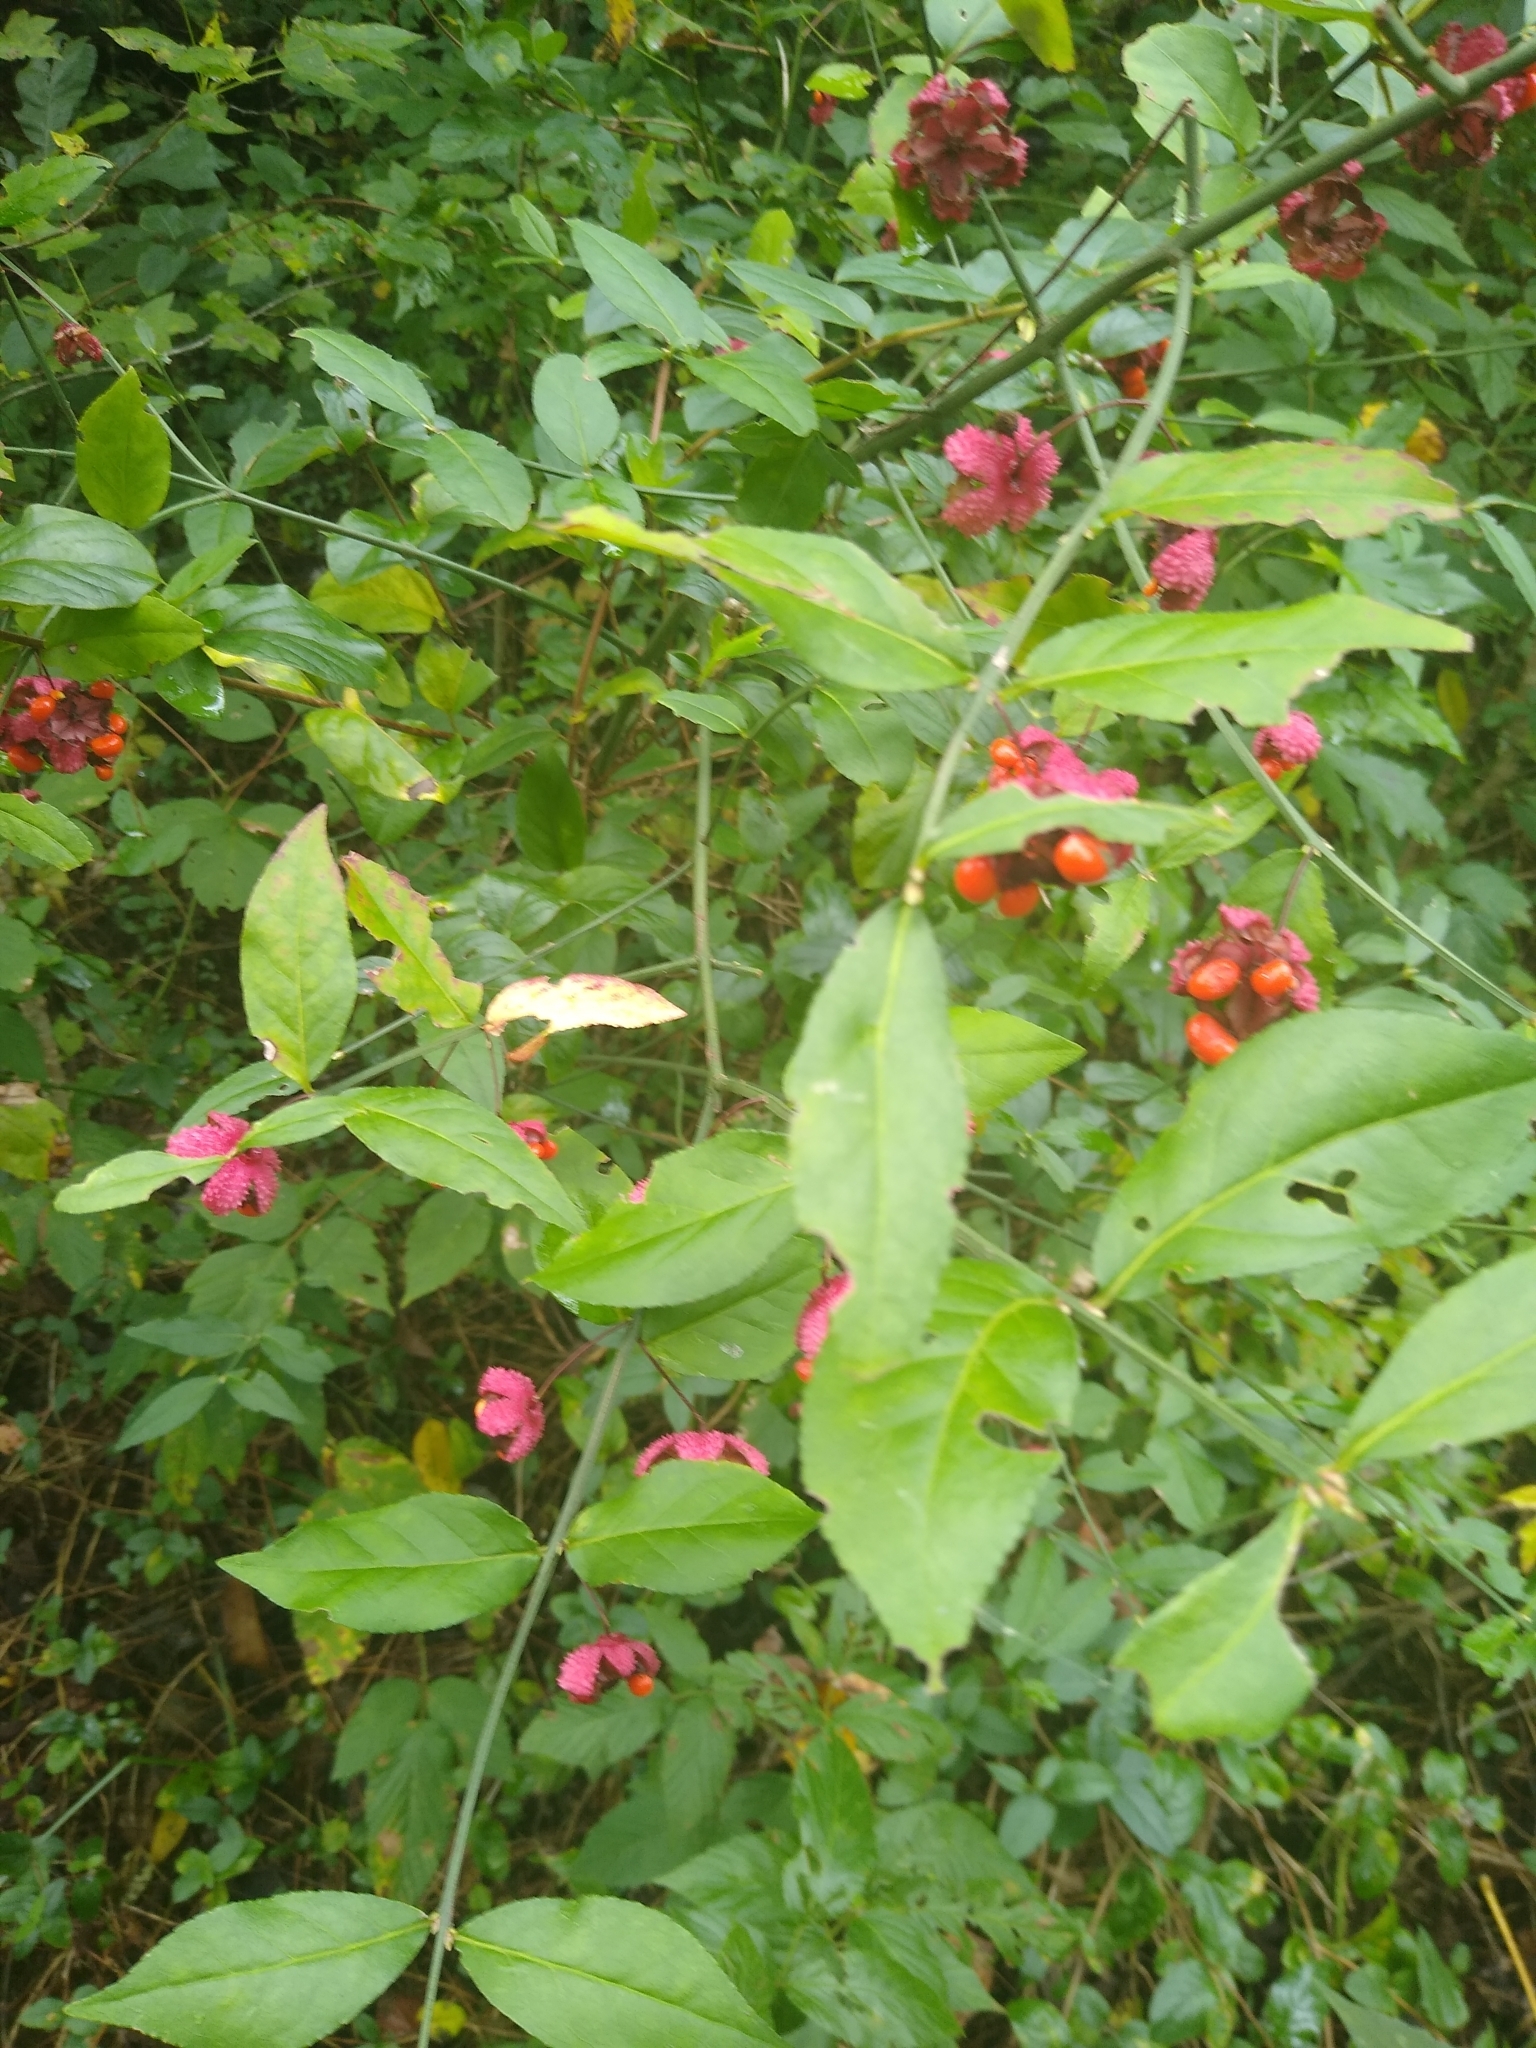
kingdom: Plantae
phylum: Tracheophyta
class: Magnoliopsida
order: Celastrales
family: Celastraceae
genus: Euonymus
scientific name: Euonymus americanus
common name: Bursting-heart
